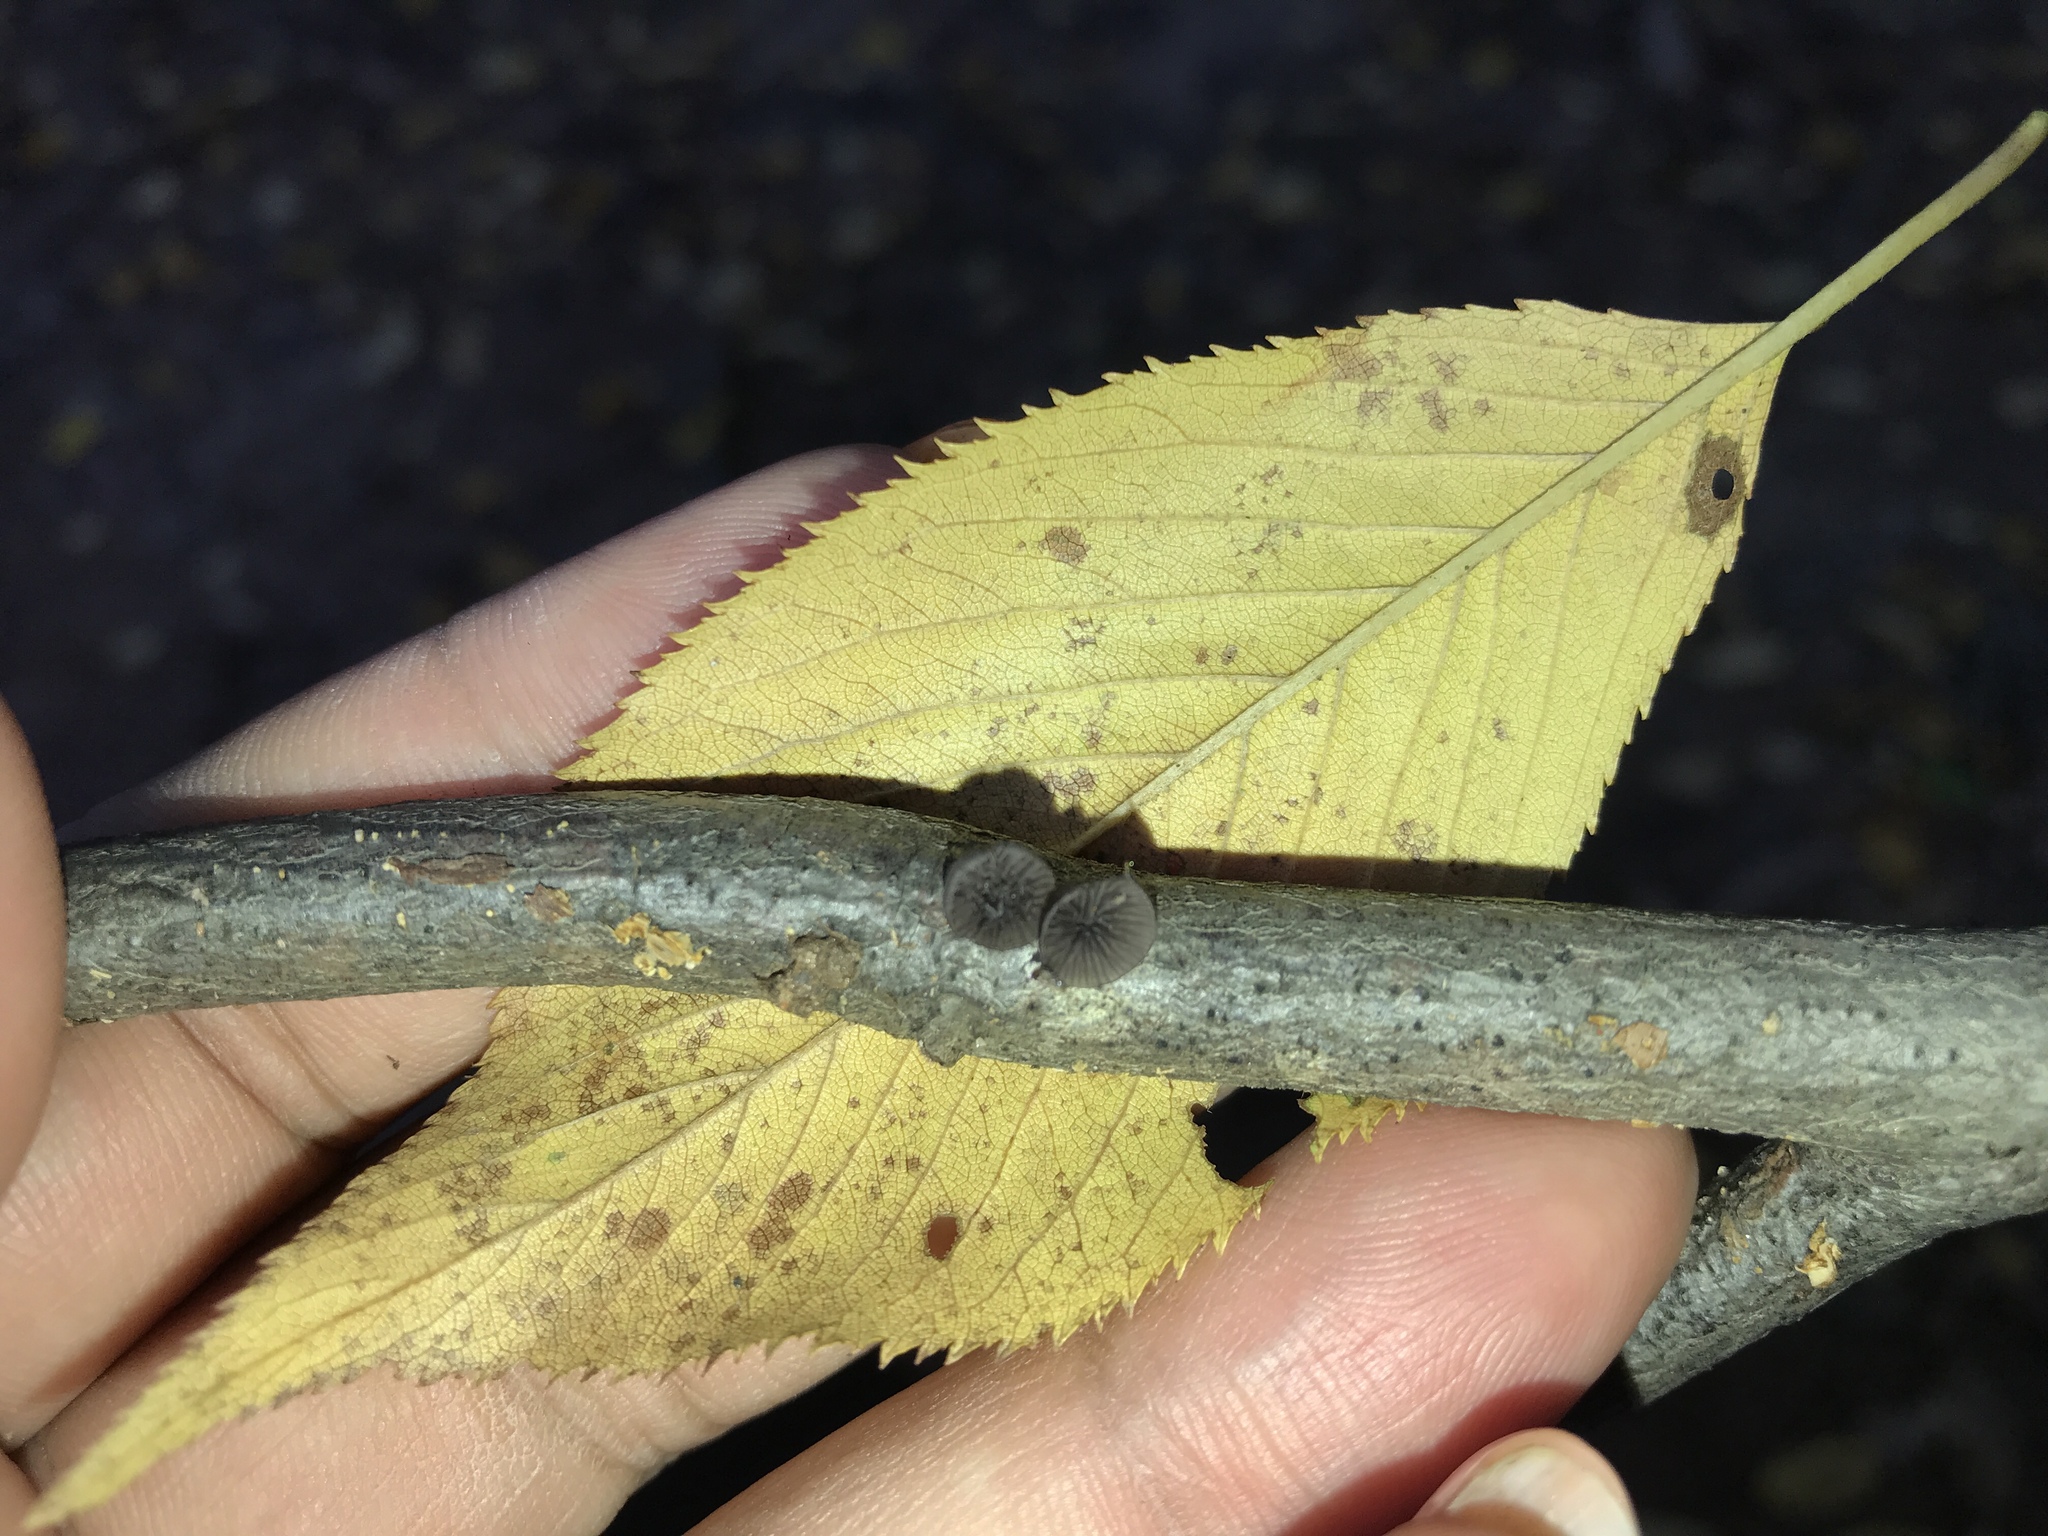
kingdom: Fungi
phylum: Basidiomycota
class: Agaricomycetes
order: Agaricales
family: Pleurotaceae
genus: Resupinatus
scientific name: Resupinatus applicatus
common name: Smoked oysterling
